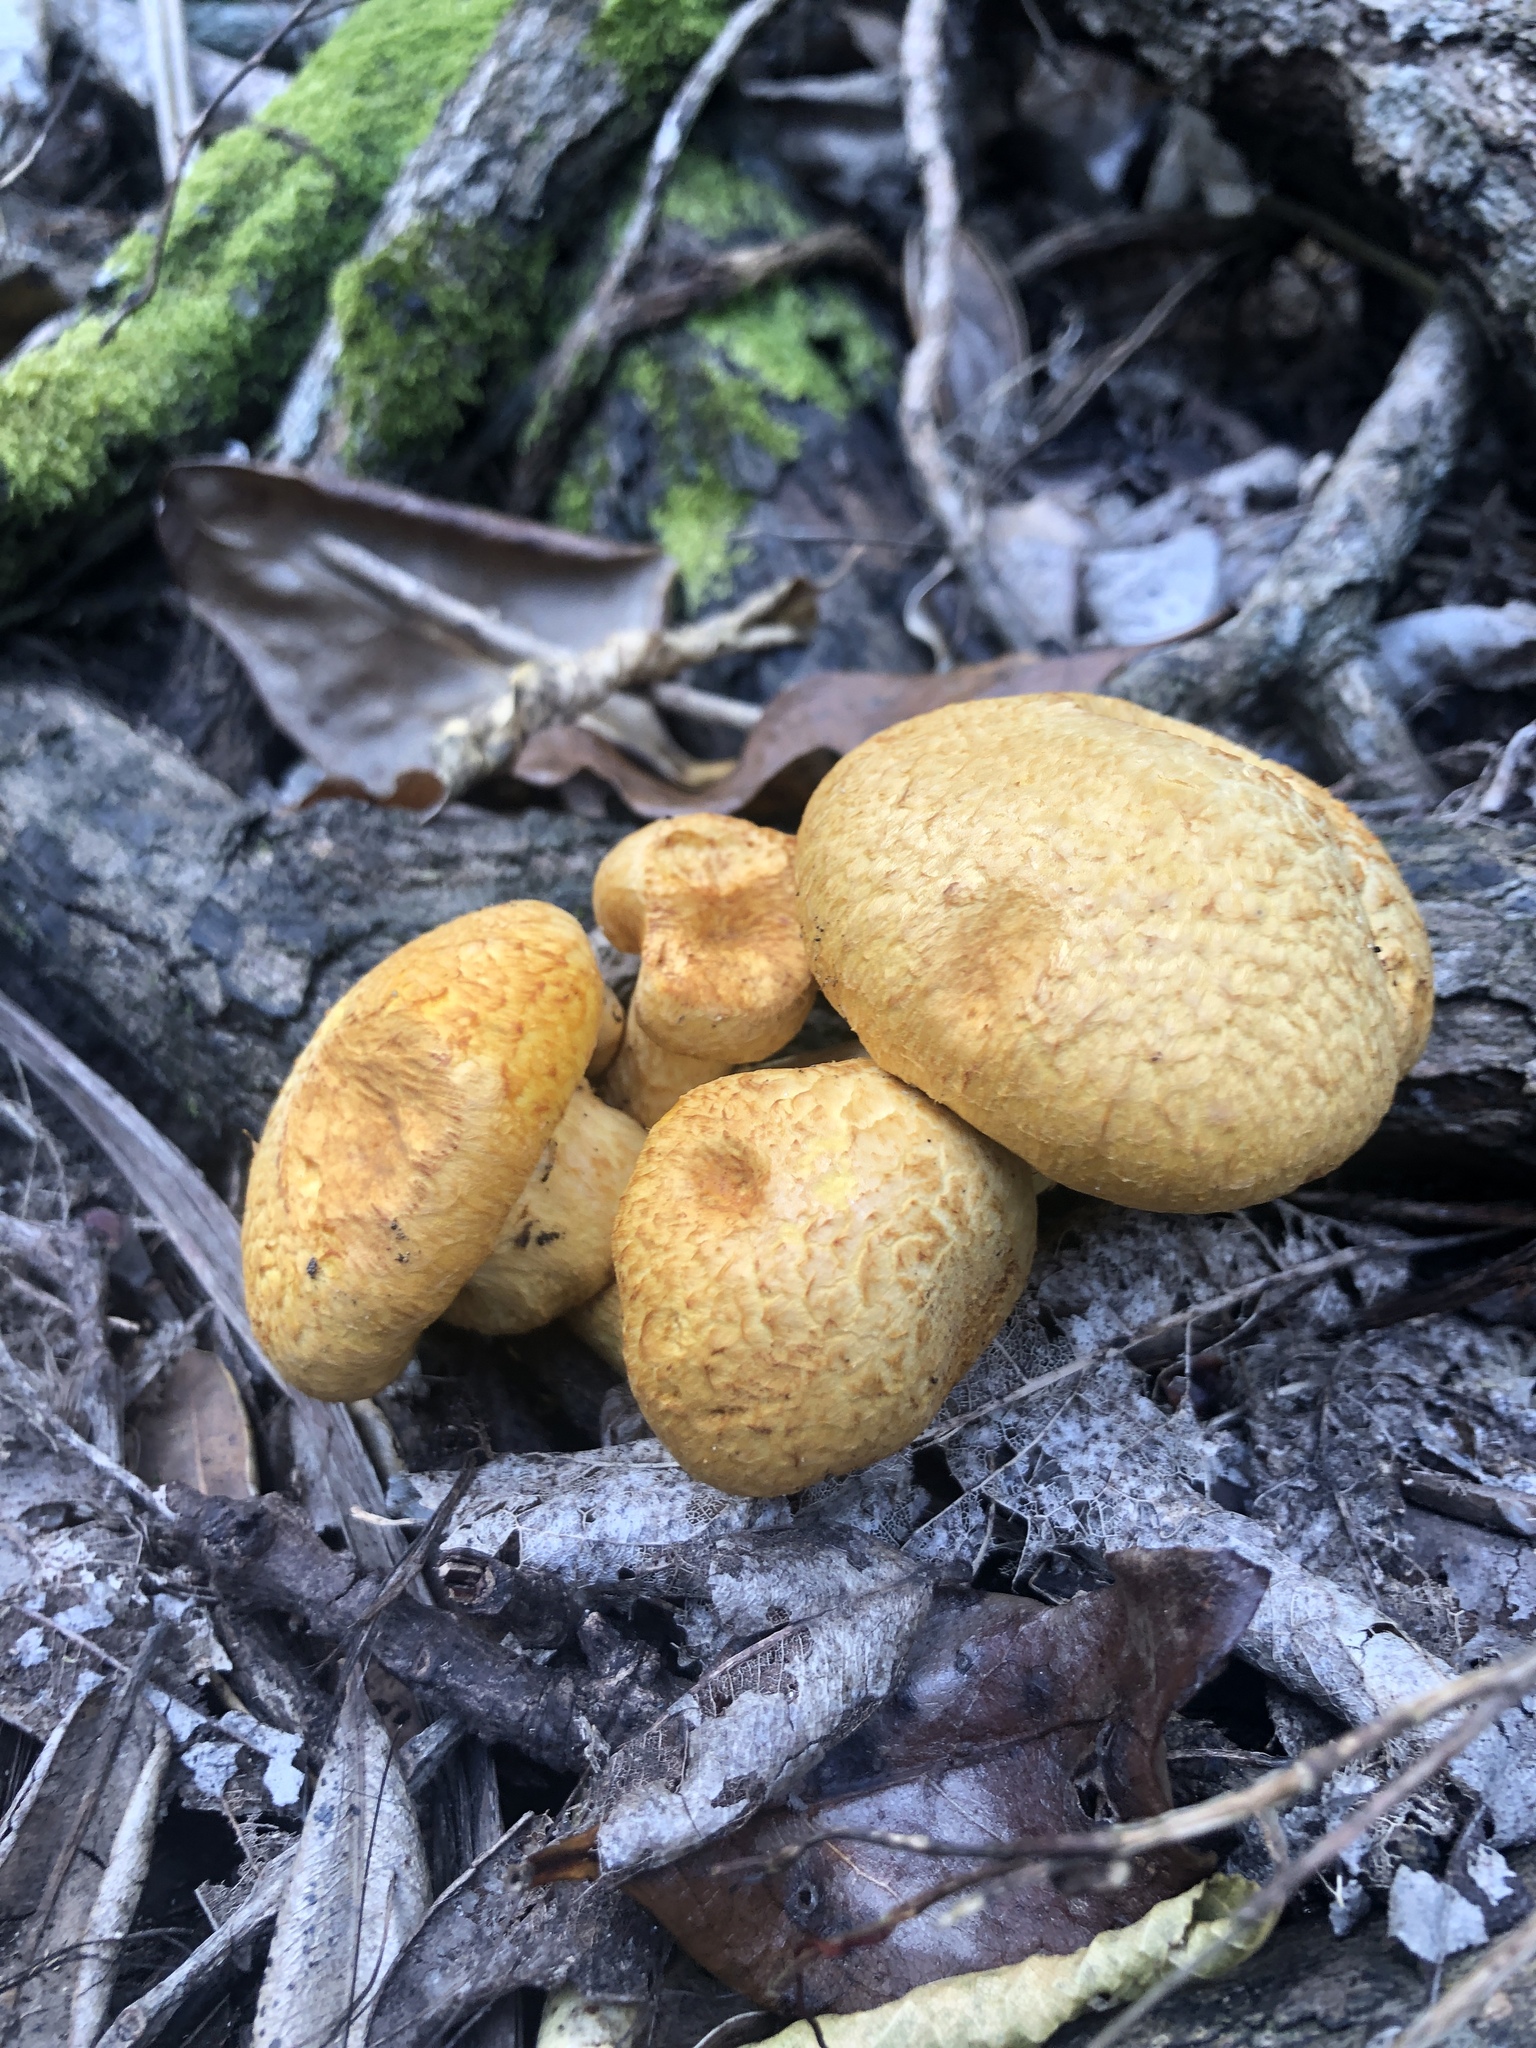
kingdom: Fungi
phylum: Basidiomycota
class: Agaricomycetes
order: Agaricales
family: Hymenogastraceae
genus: Gymnopilus
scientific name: Gymnopilus junonius
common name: Spectacular rustgill
